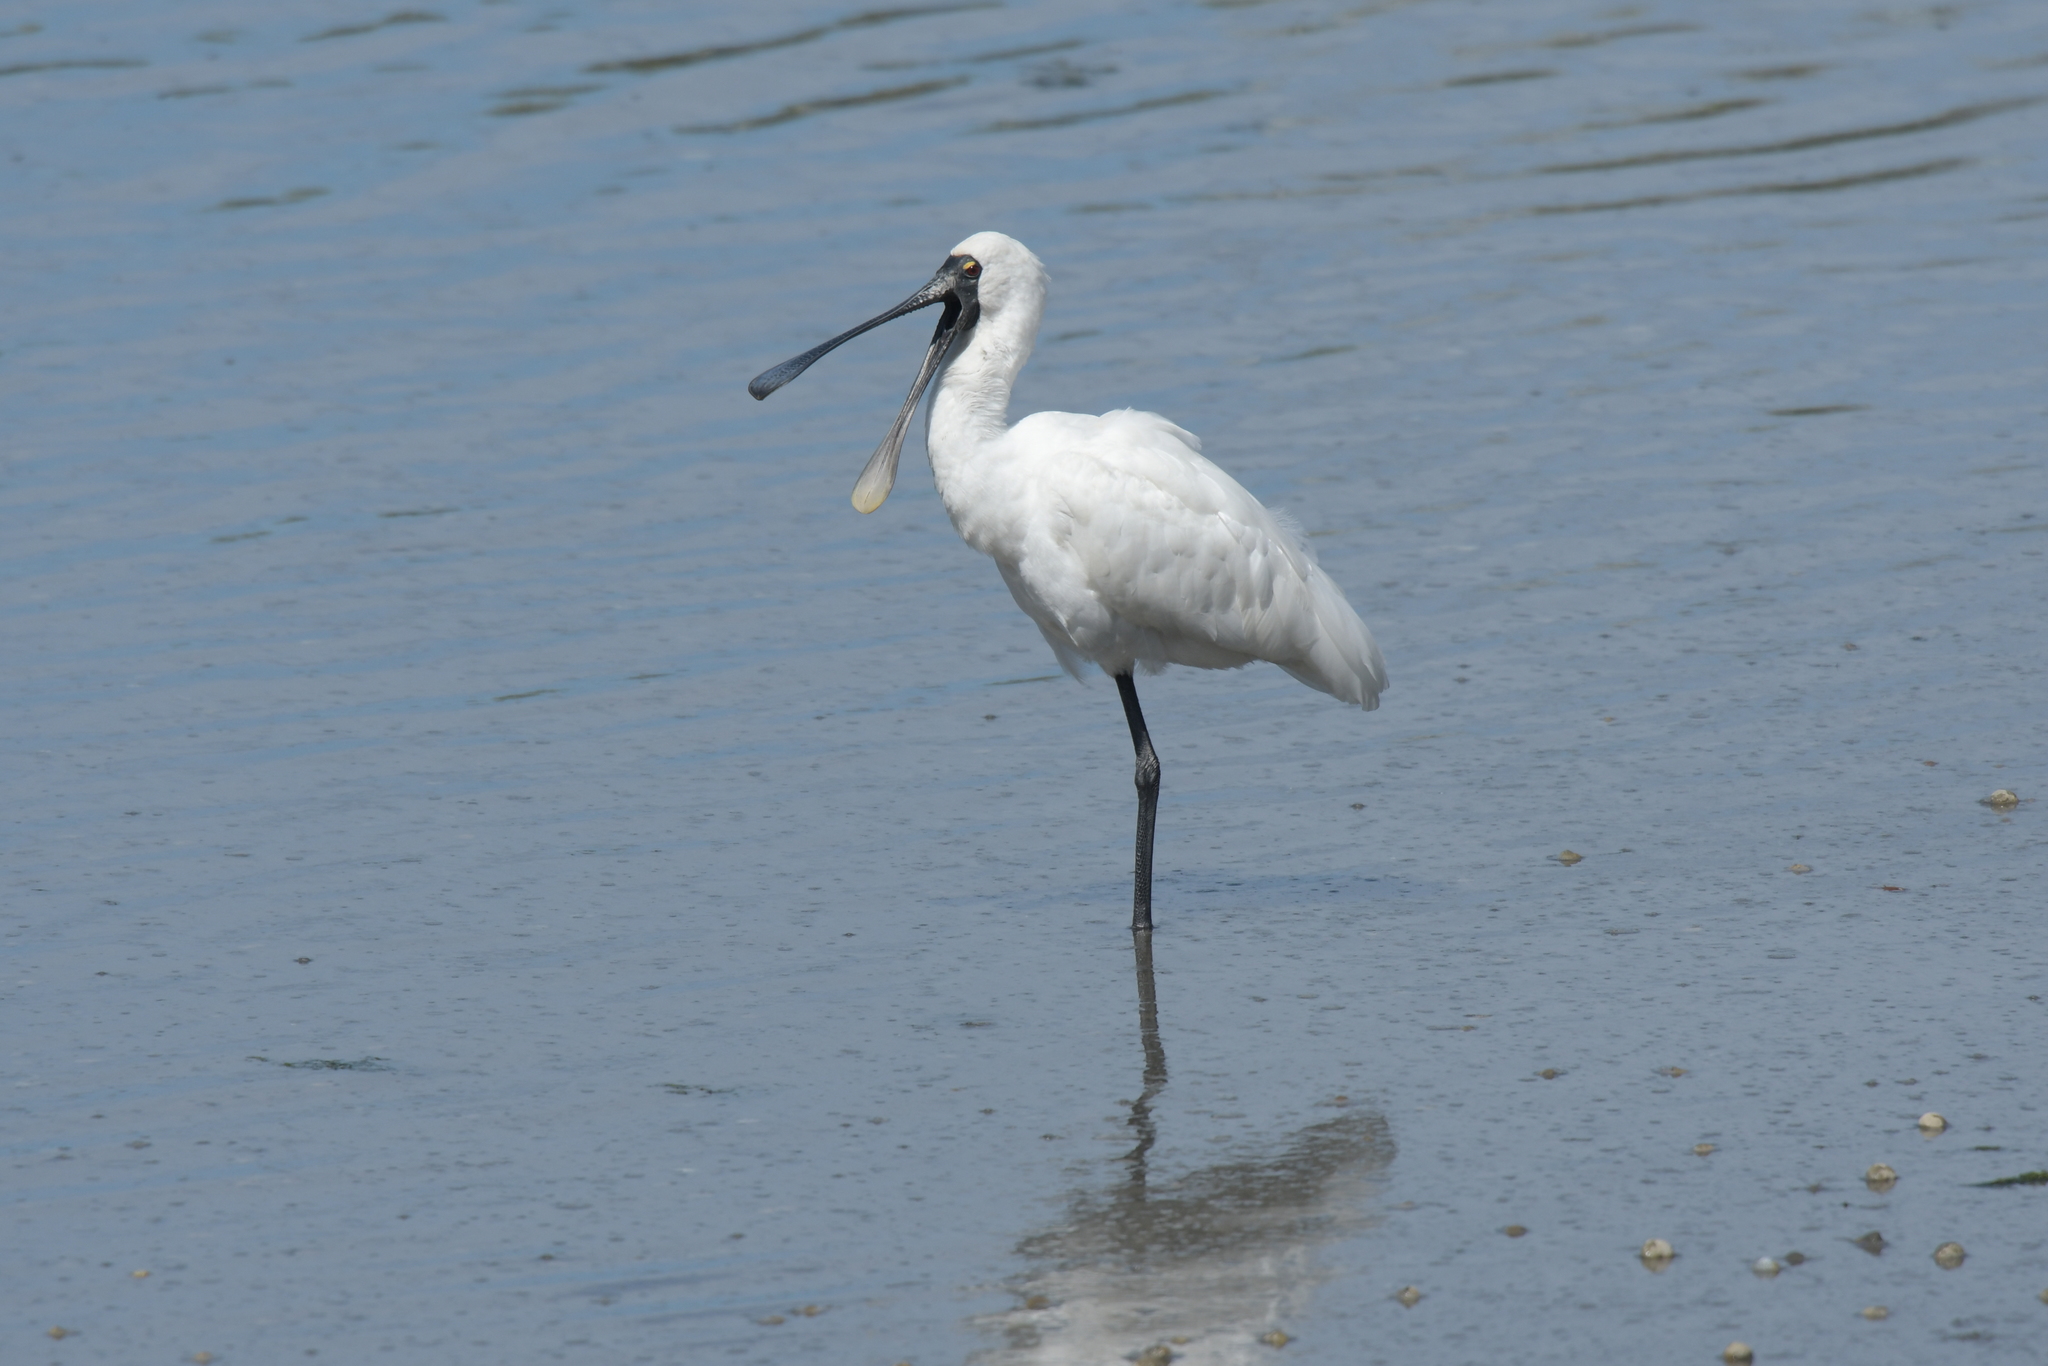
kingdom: Animalia
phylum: Chordata
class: Aves
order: Pelecaniformes
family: Threskiornithidae
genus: Platalea
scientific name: Platalea regia
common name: Royal spoonbill
